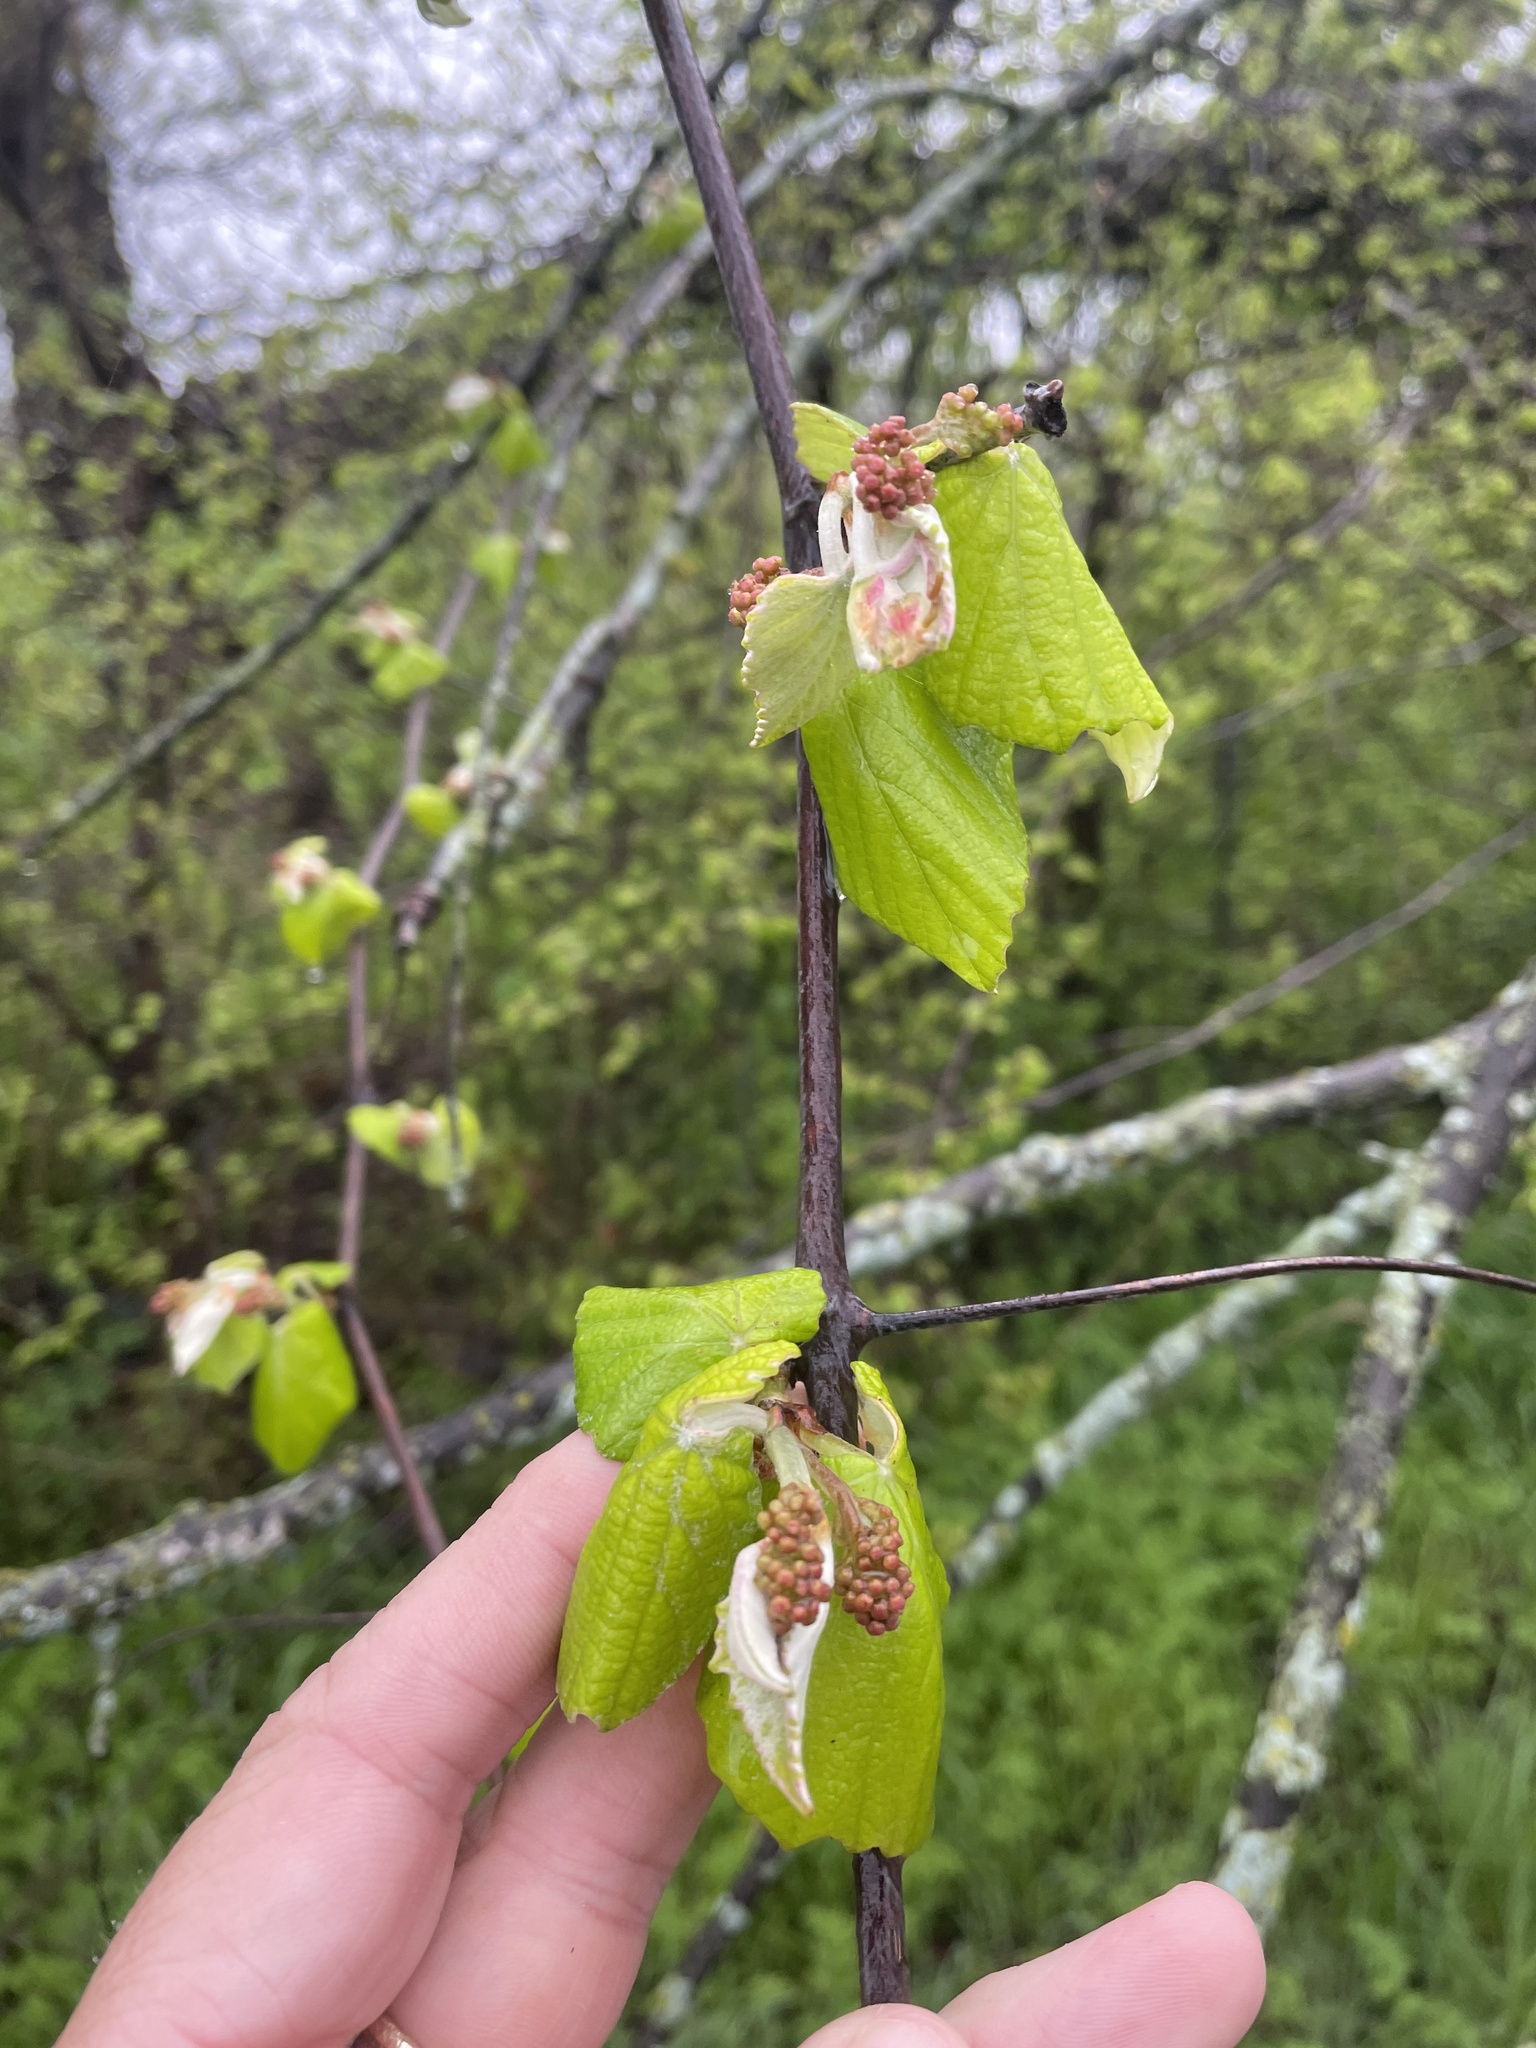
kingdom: Plantae
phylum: Tracheophyta
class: Magnoliopsida
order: Vitales
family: Vitaceae
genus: Vitis
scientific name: Vitis mustangensis
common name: Mustang grape
